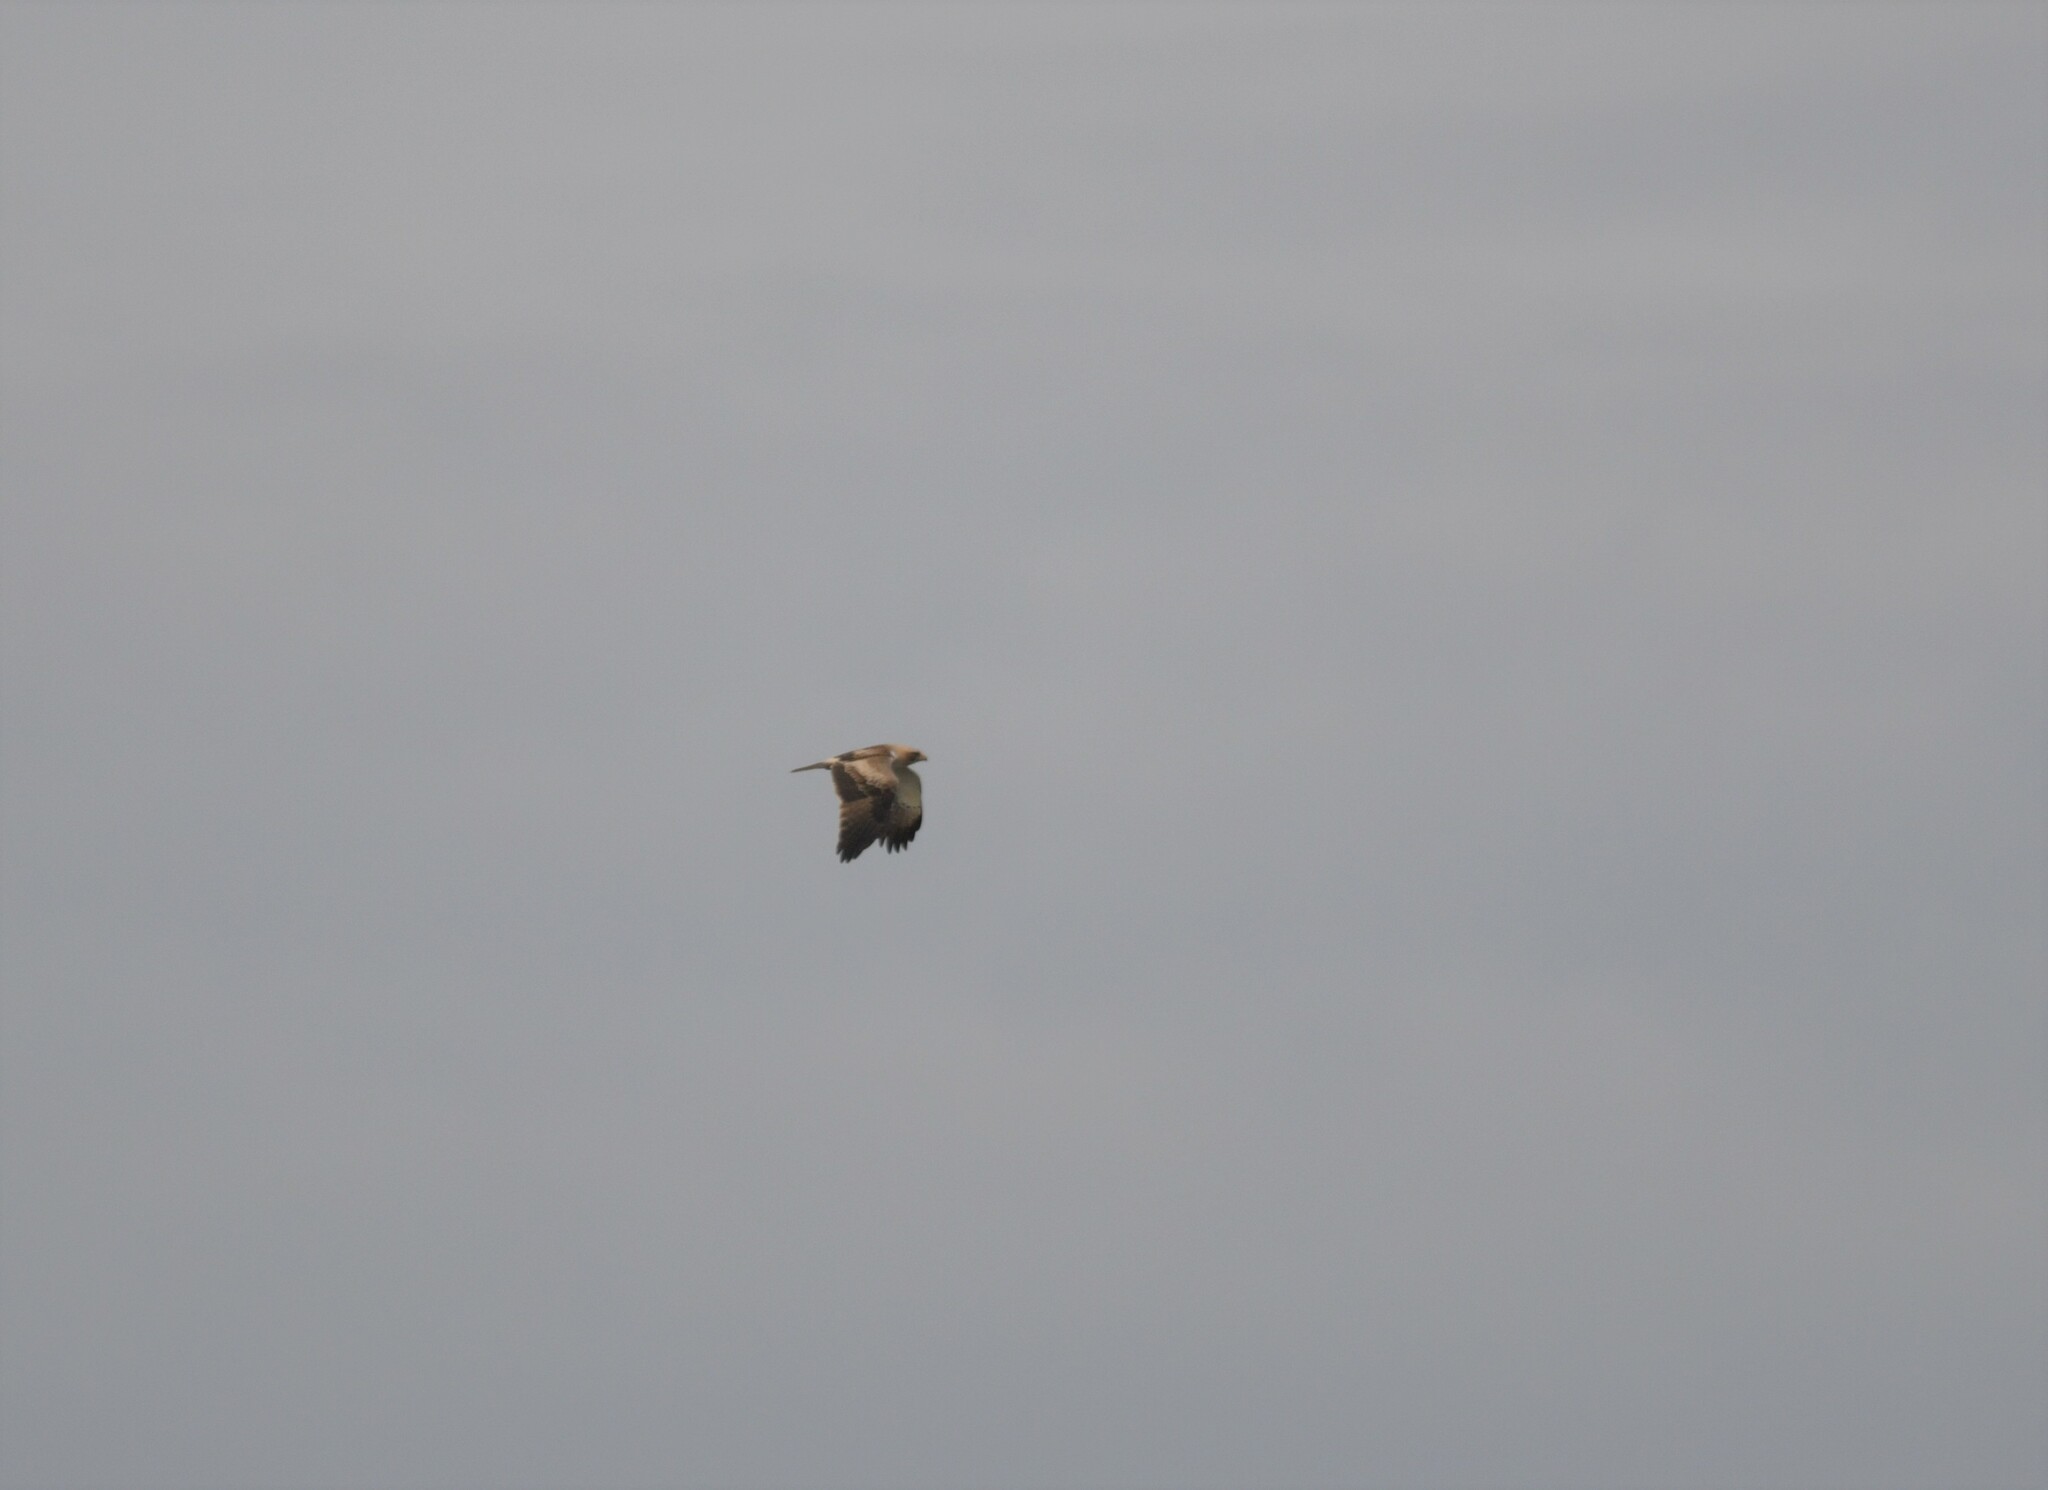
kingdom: Animalia
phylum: Chordata
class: Aves
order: Accipitriformes
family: Accipitridae
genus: Hieraaetus
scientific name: Hieraaetus pennatus
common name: Booted eagle
